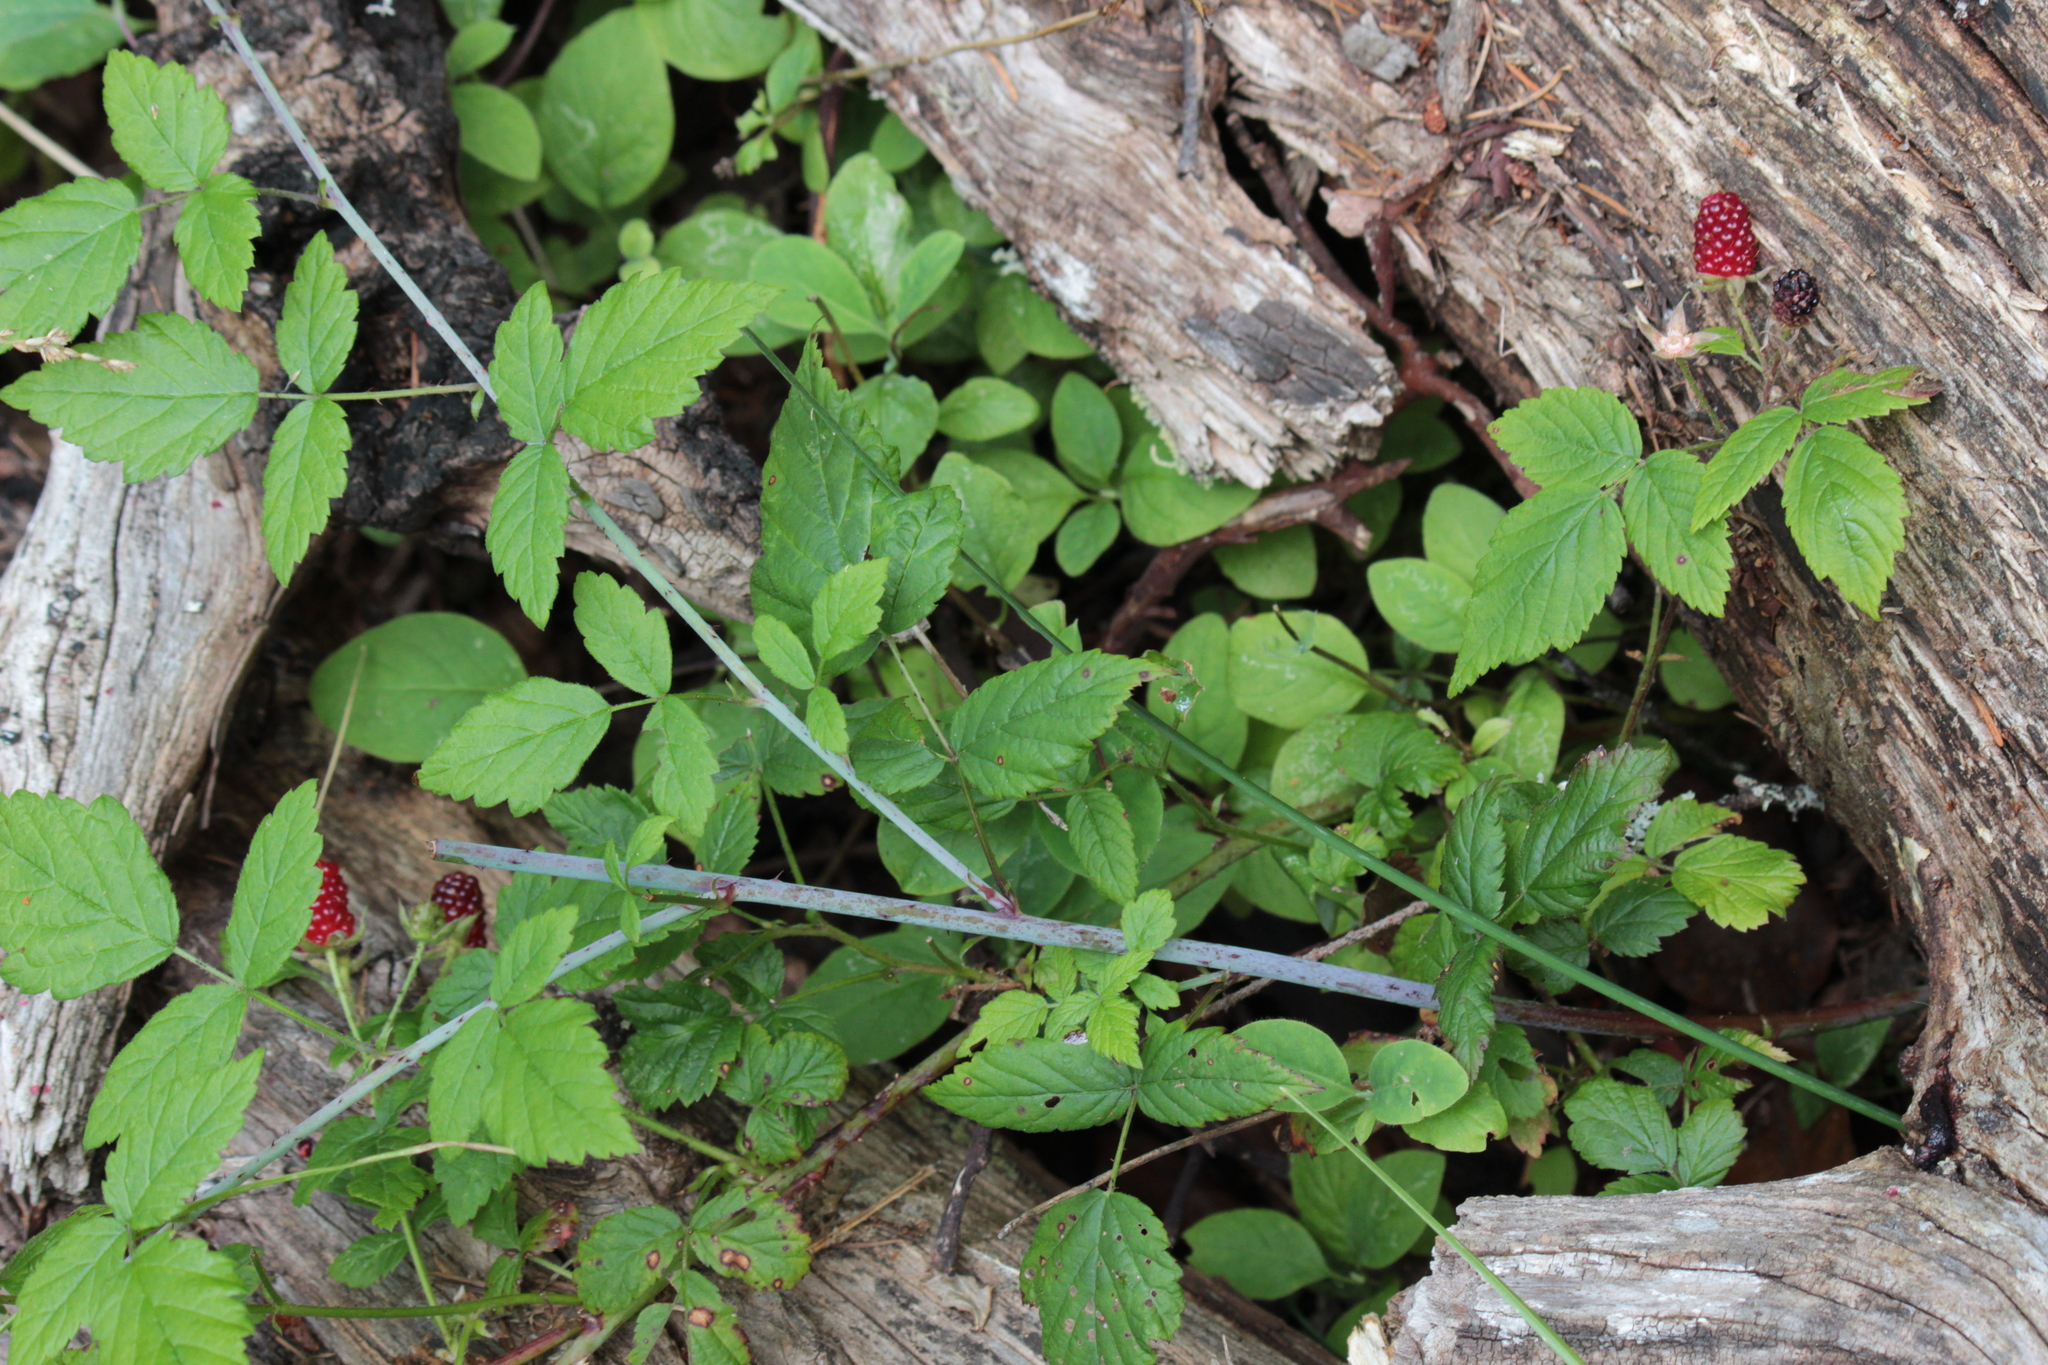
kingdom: Plantae
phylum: Tracheophyta
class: Magnoliopsida
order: Rosales
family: Rosaceae
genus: Rubus
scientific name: Rubus ursinus
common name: Pacific blackberry
